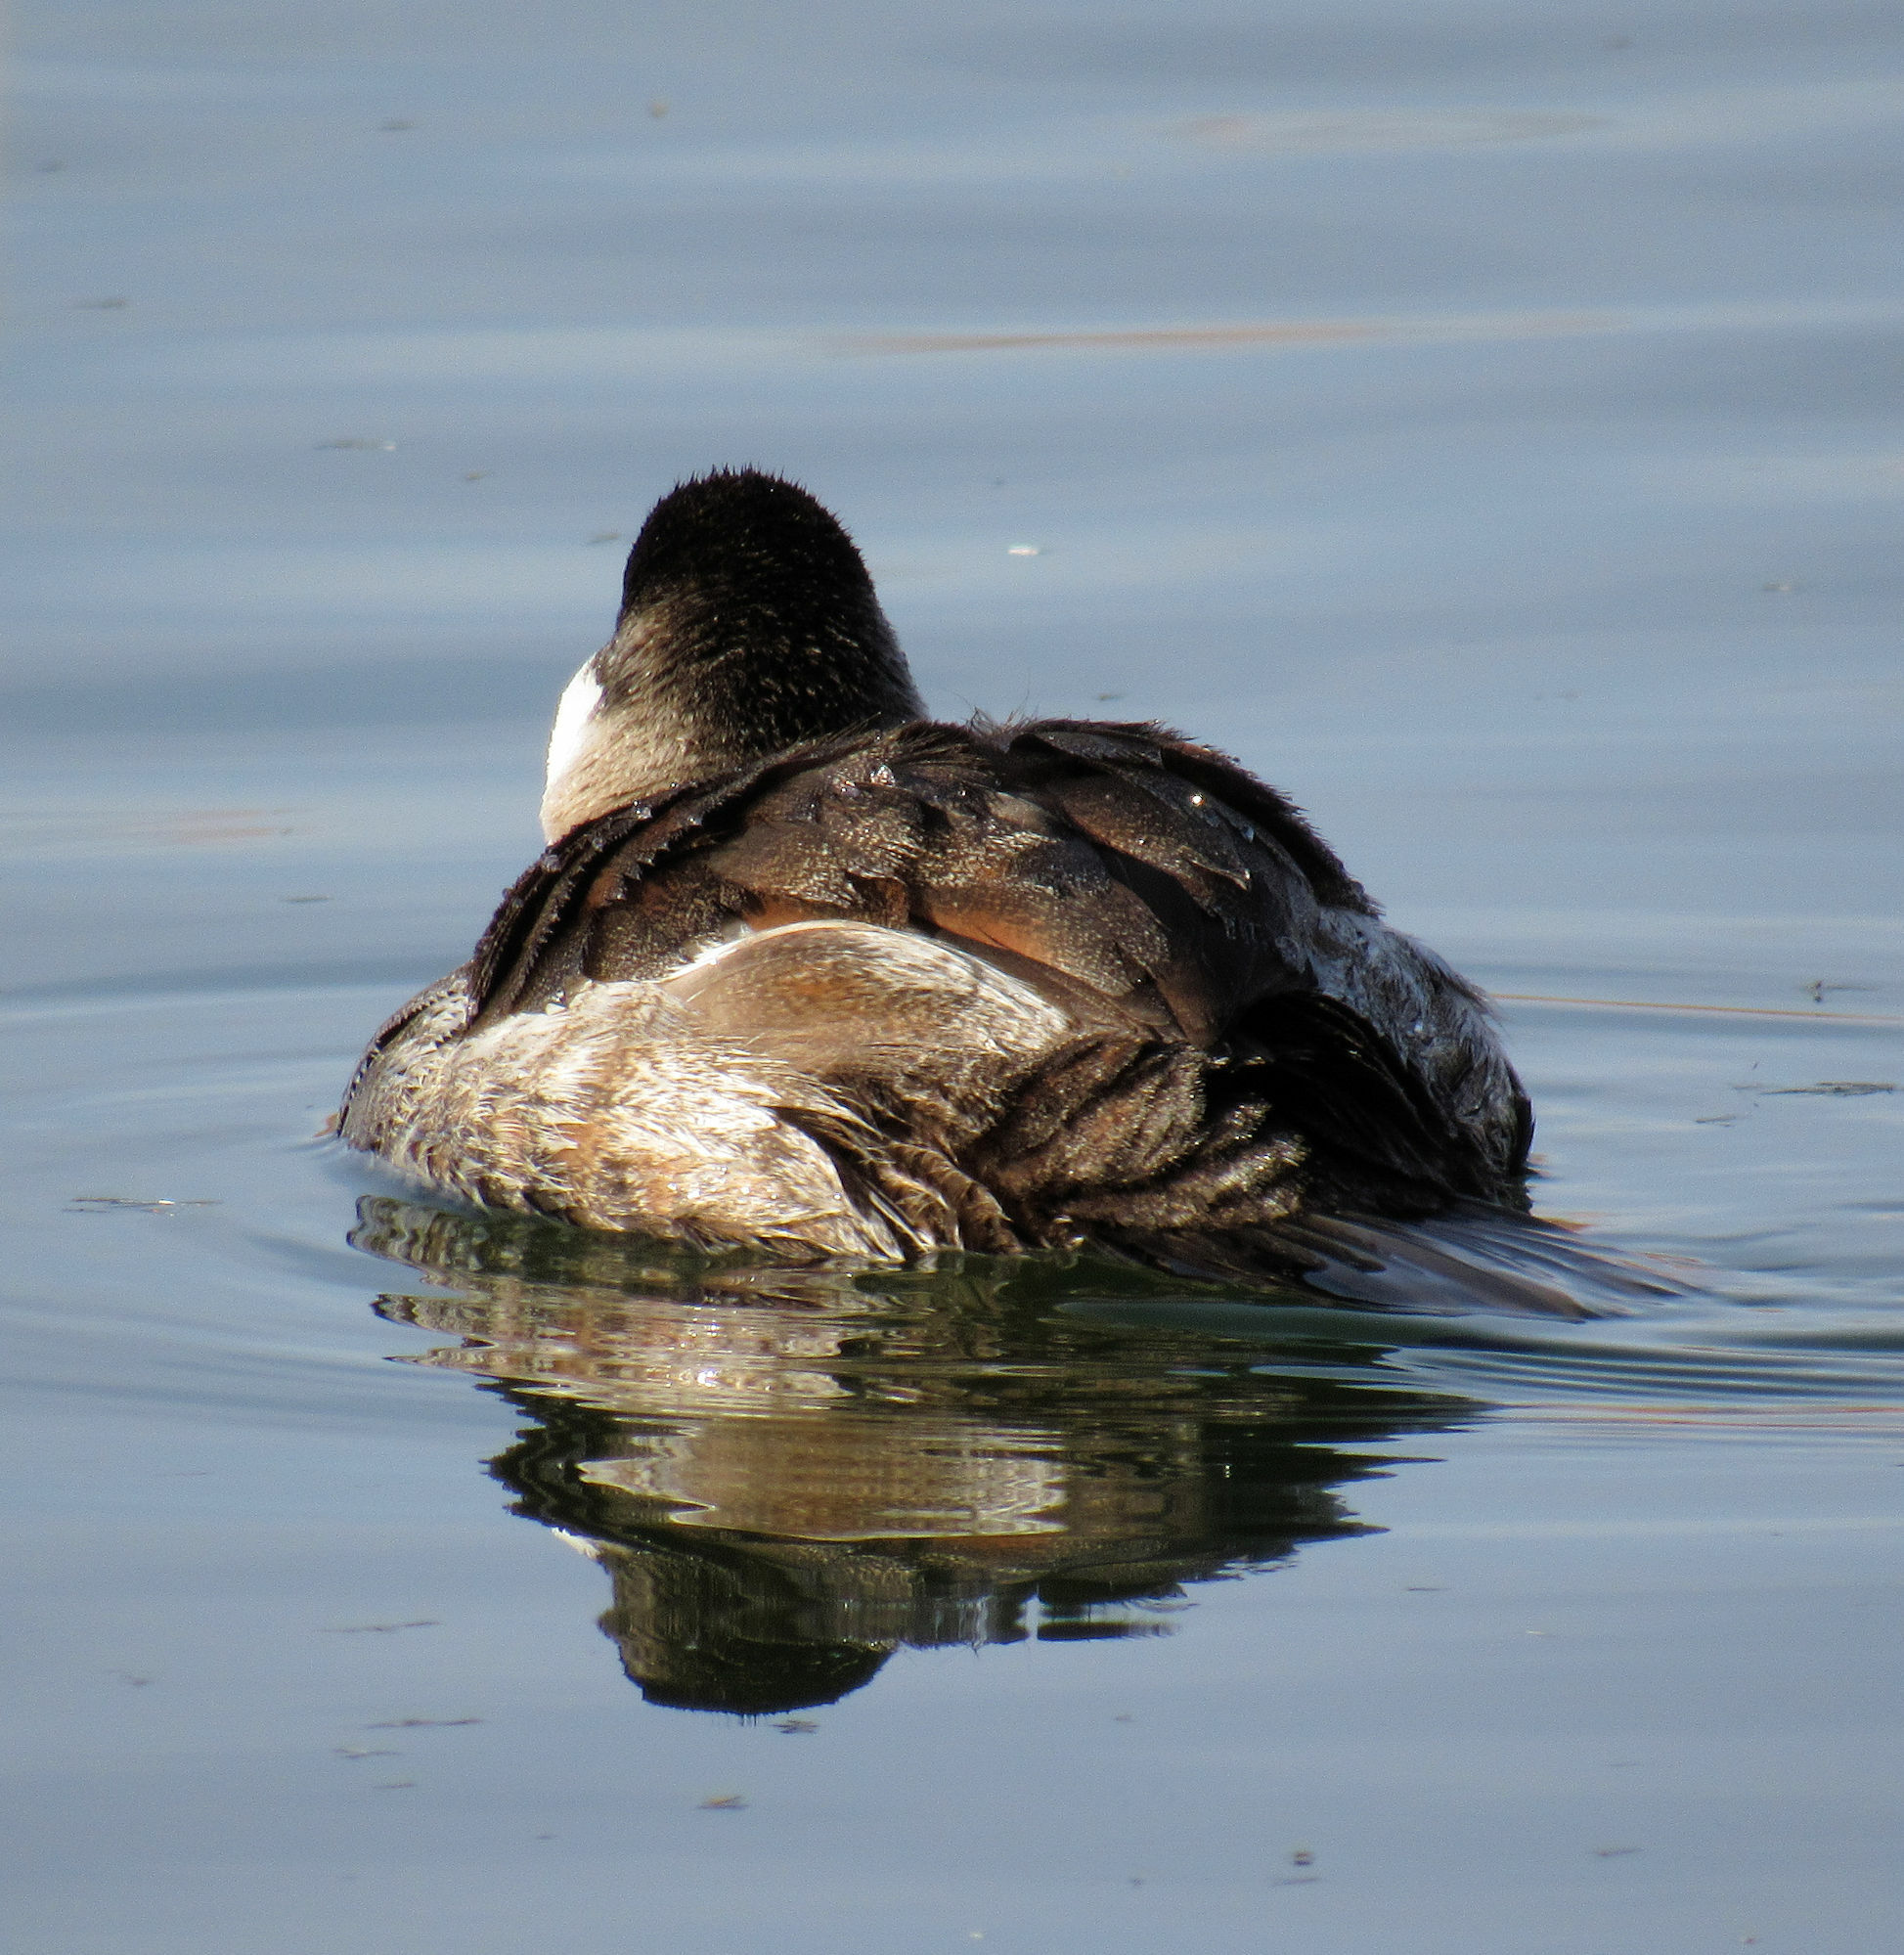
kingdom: Animalia
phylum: Chordata
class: Aves
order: Anseriformes
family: Anatidae
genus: Oxyura
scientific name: Oxyura jamaicensis
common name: Ruddy duck
